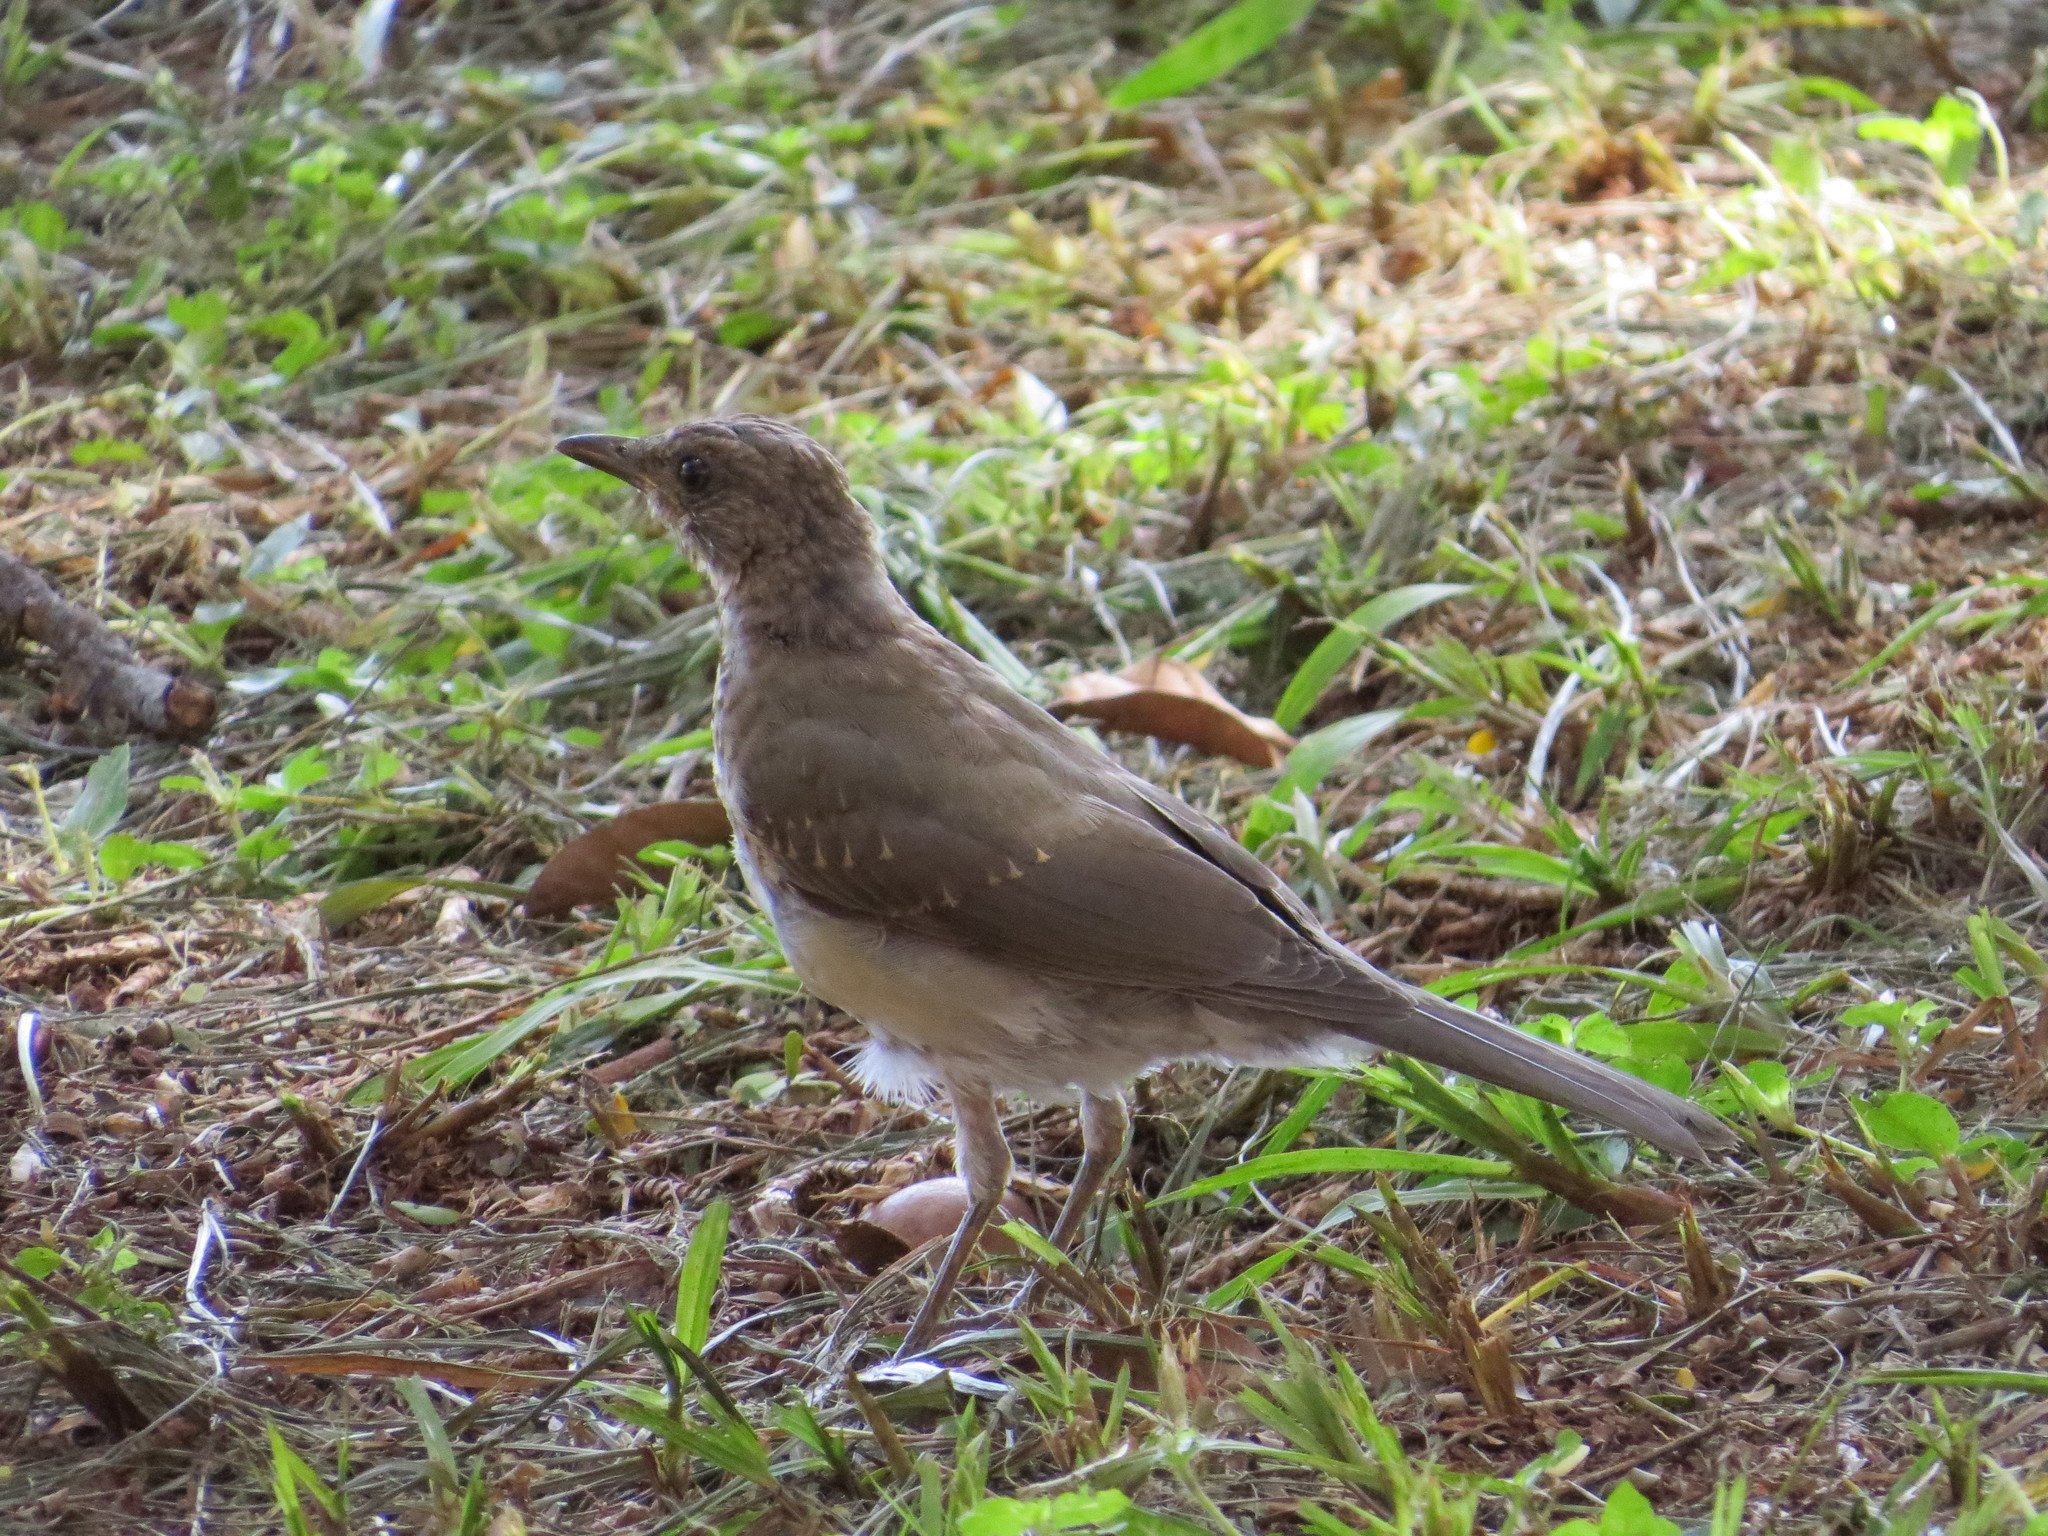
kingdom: Animalia
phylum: Chordata
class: Aves
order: Passeriformes
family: Turdidae
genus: Turdus
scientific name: Turdus leucomelas
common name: Pale-breasted thrush
